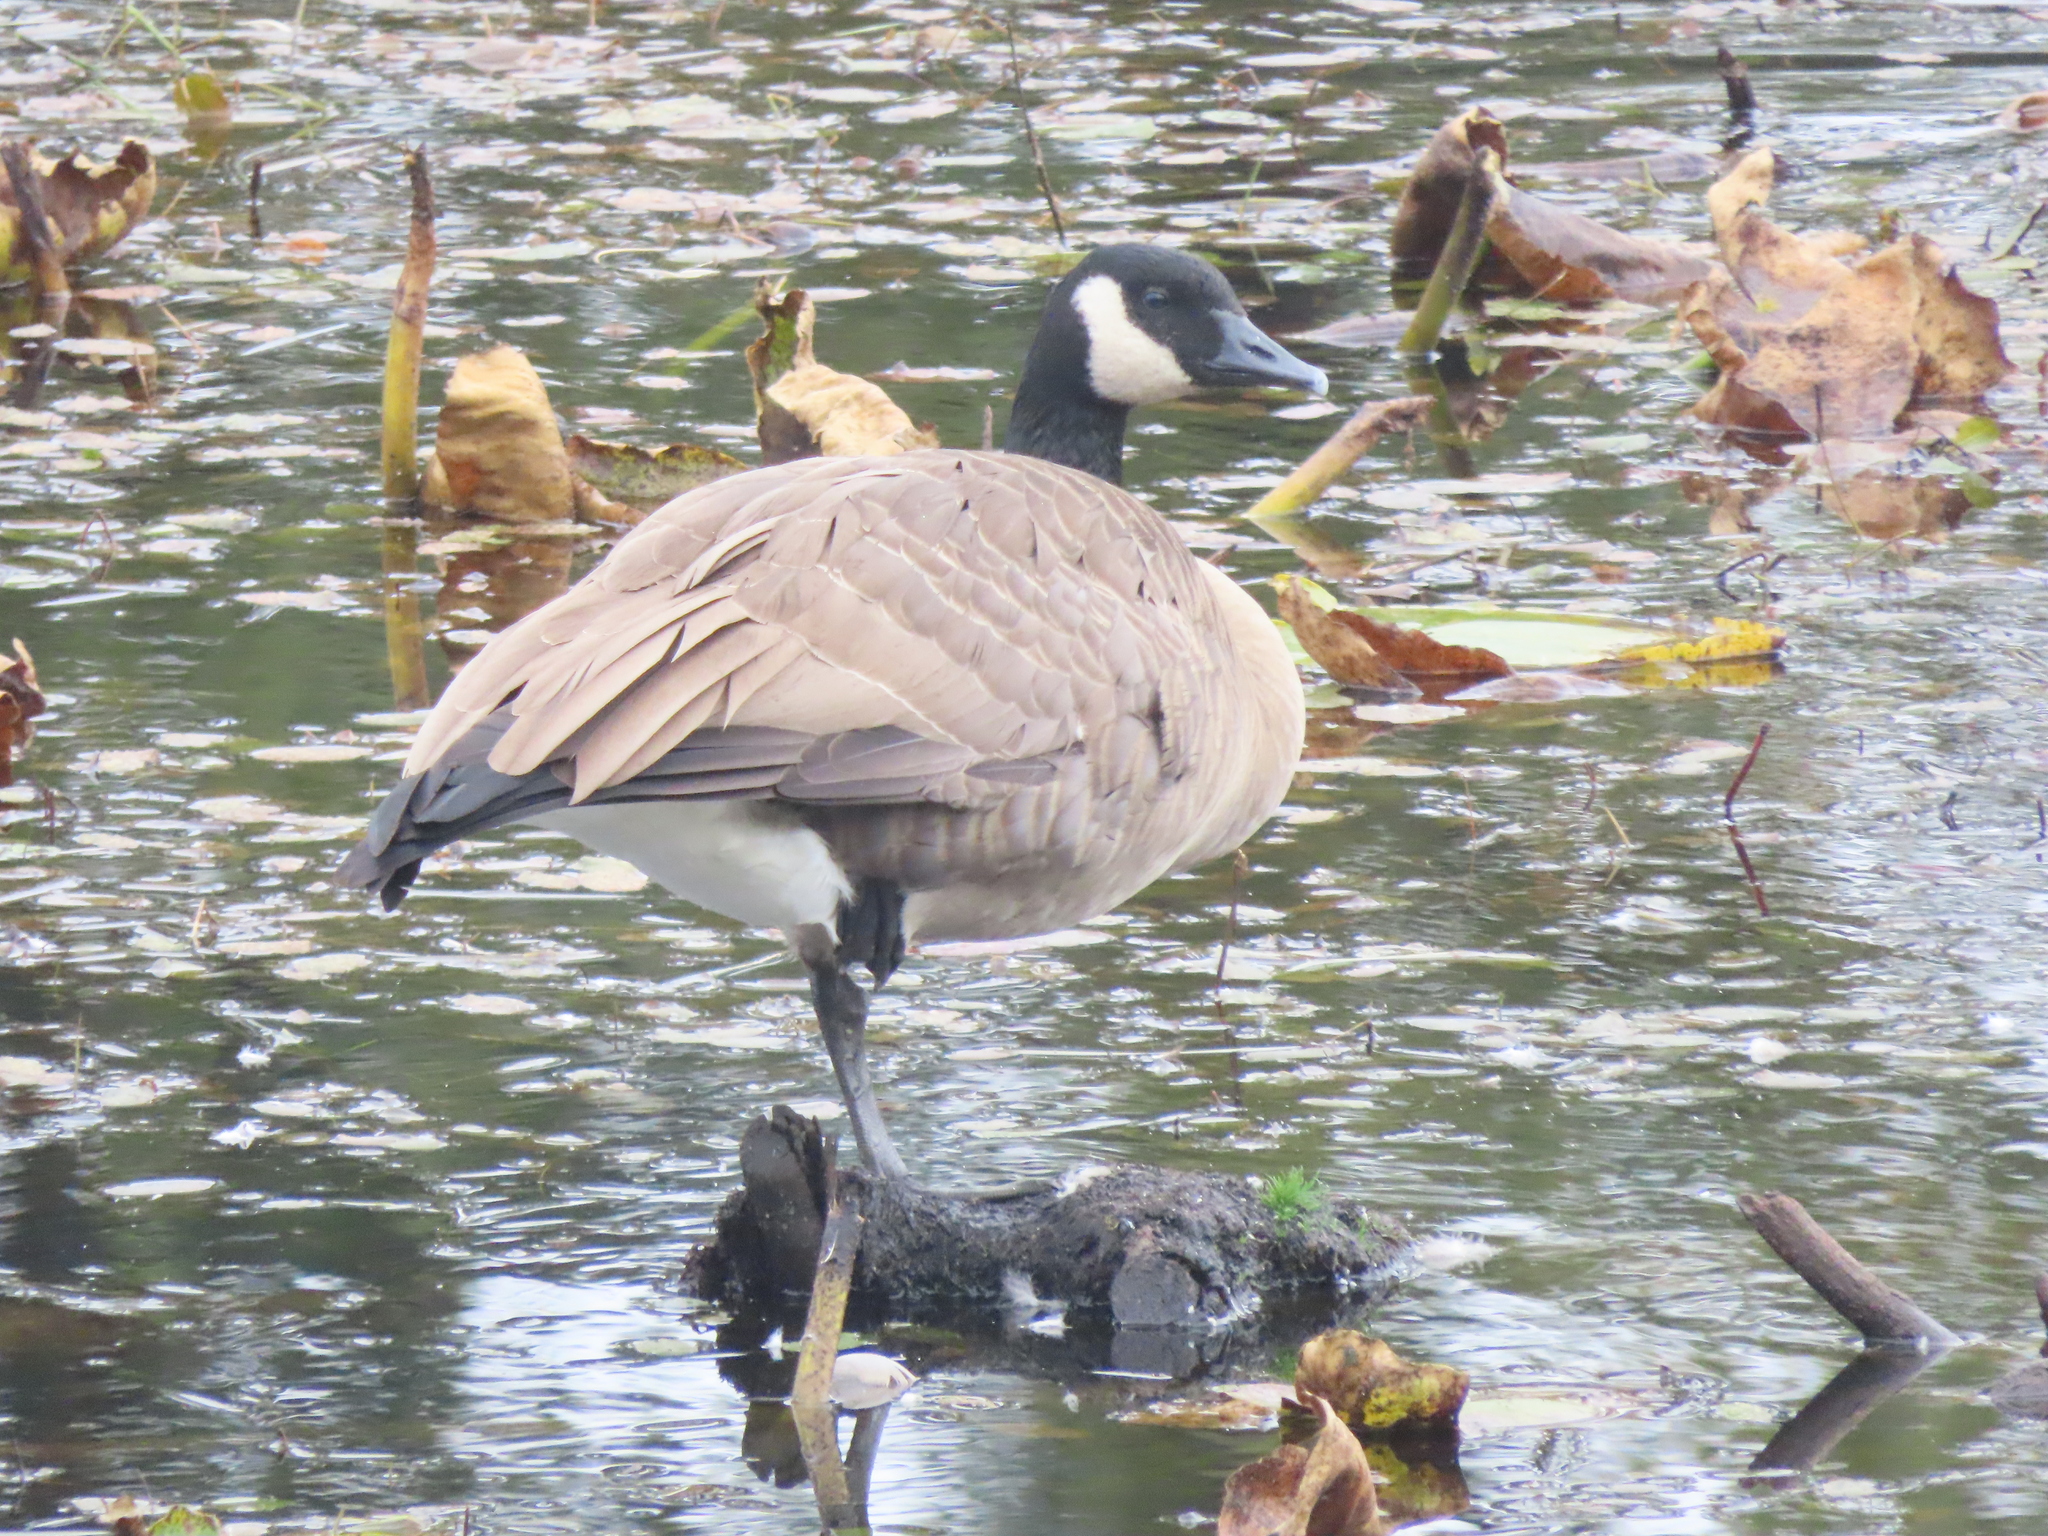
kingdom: Animalia
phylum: Chordata
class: Aves
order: Anseriformes
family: Anatidae
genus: Branta
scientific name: Branta canadensis
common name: Canada goose
